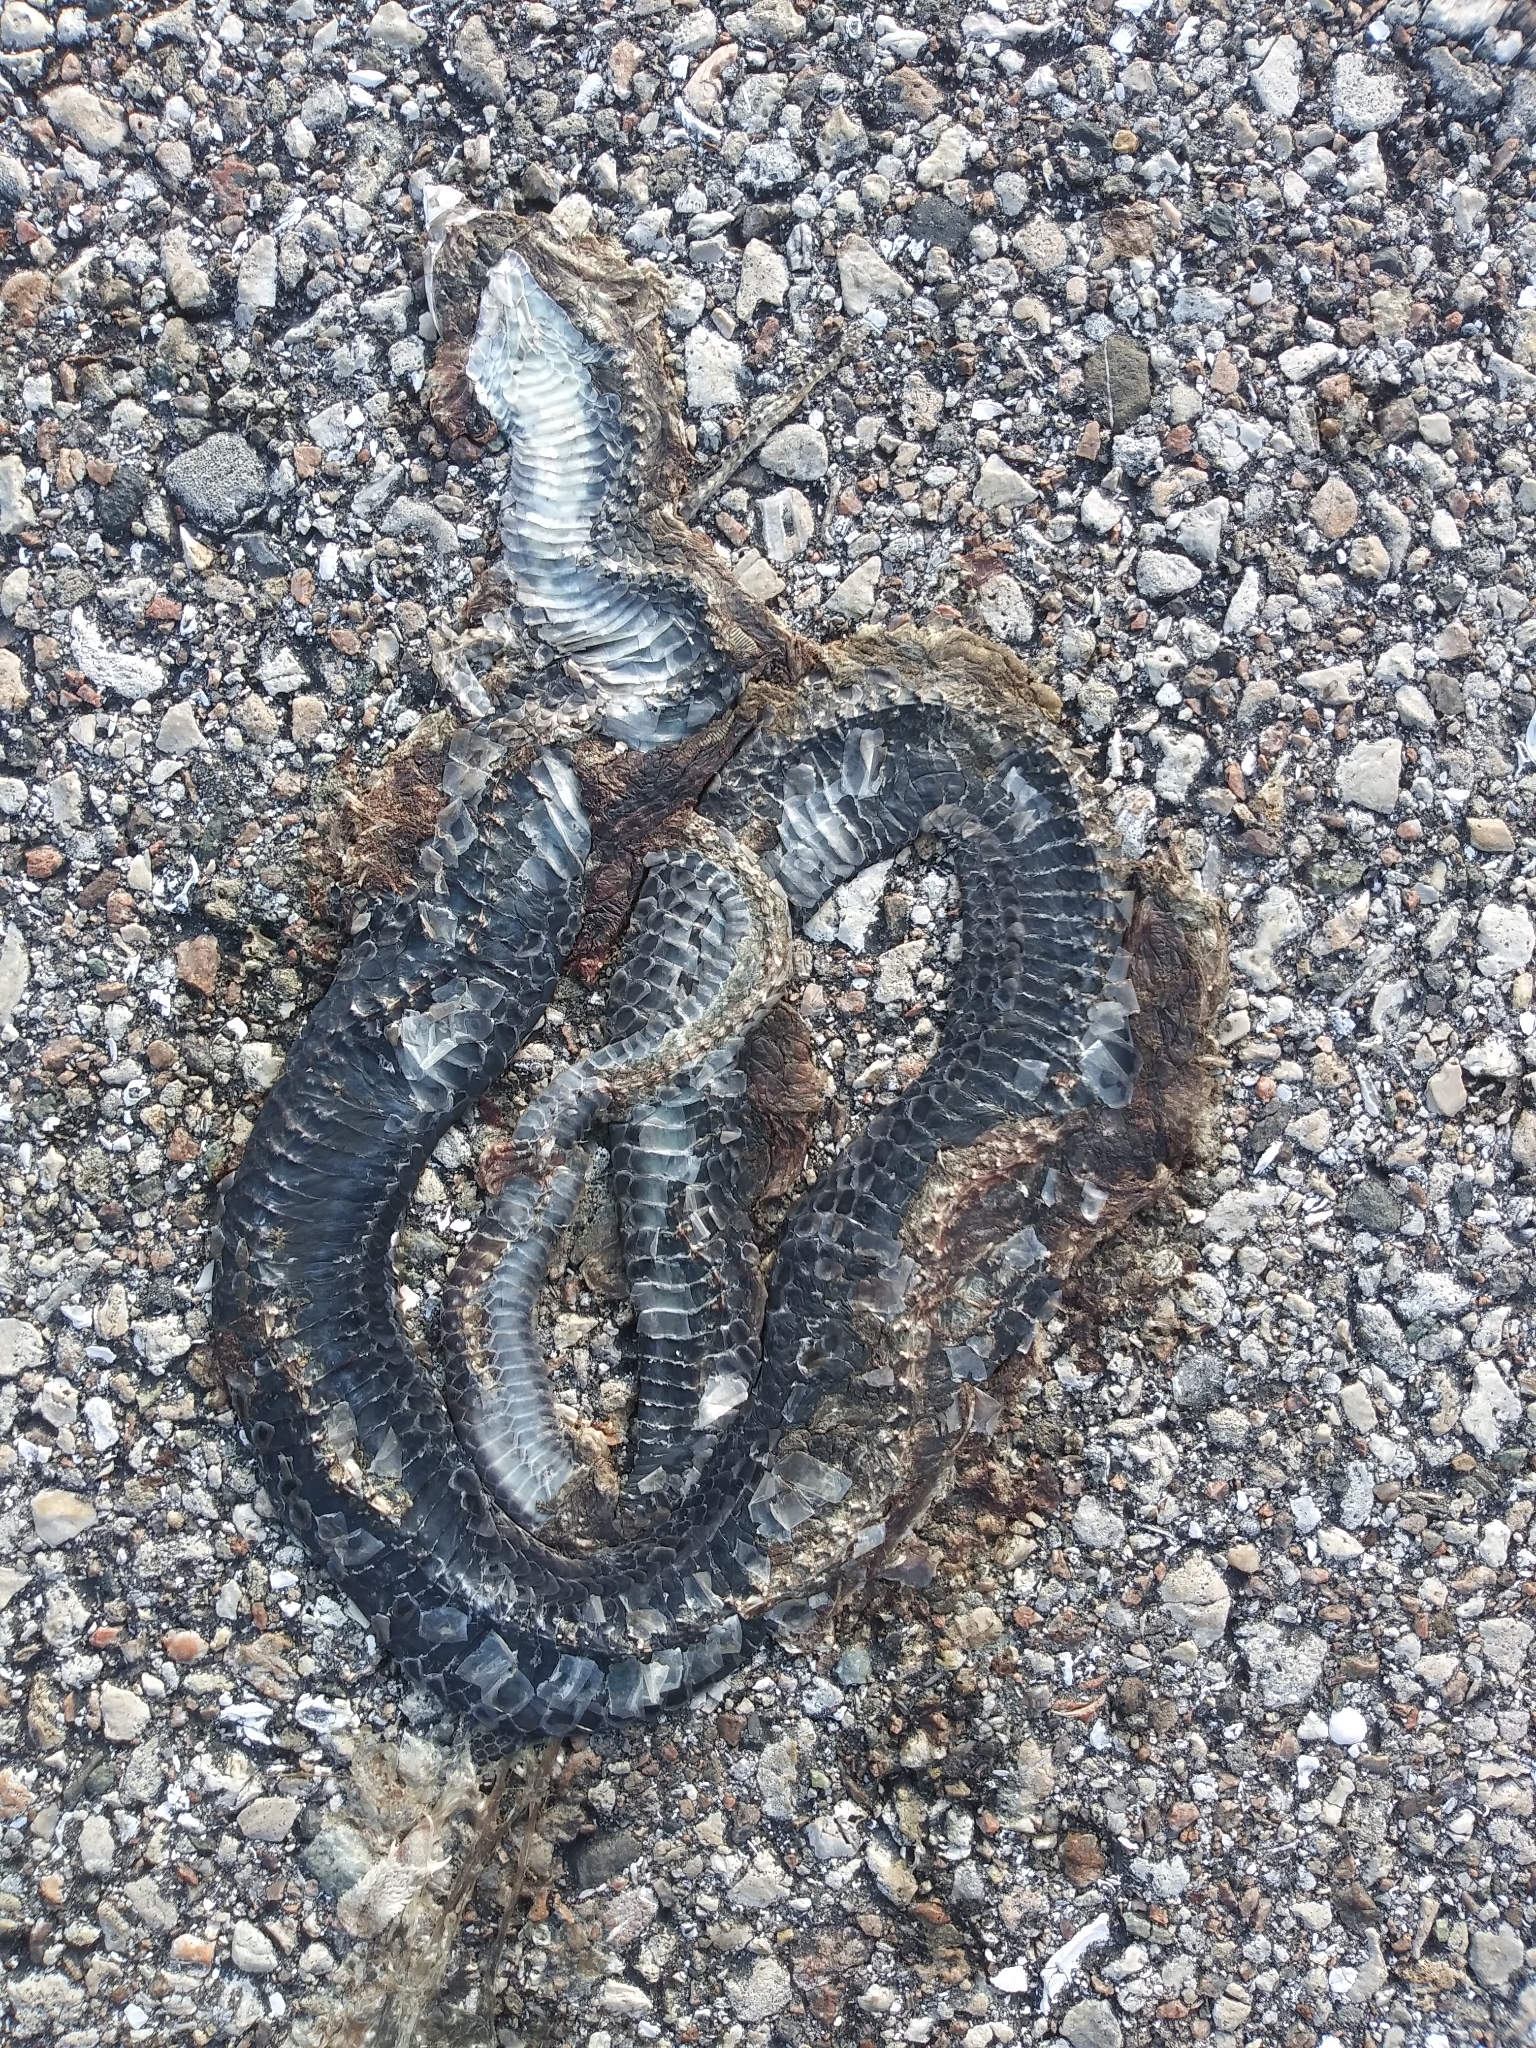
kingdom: Animalia
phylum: Chordata
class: Squamata
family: Colubridae
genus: Coluber
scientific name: Coluber constrictor
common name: Eastern racer
